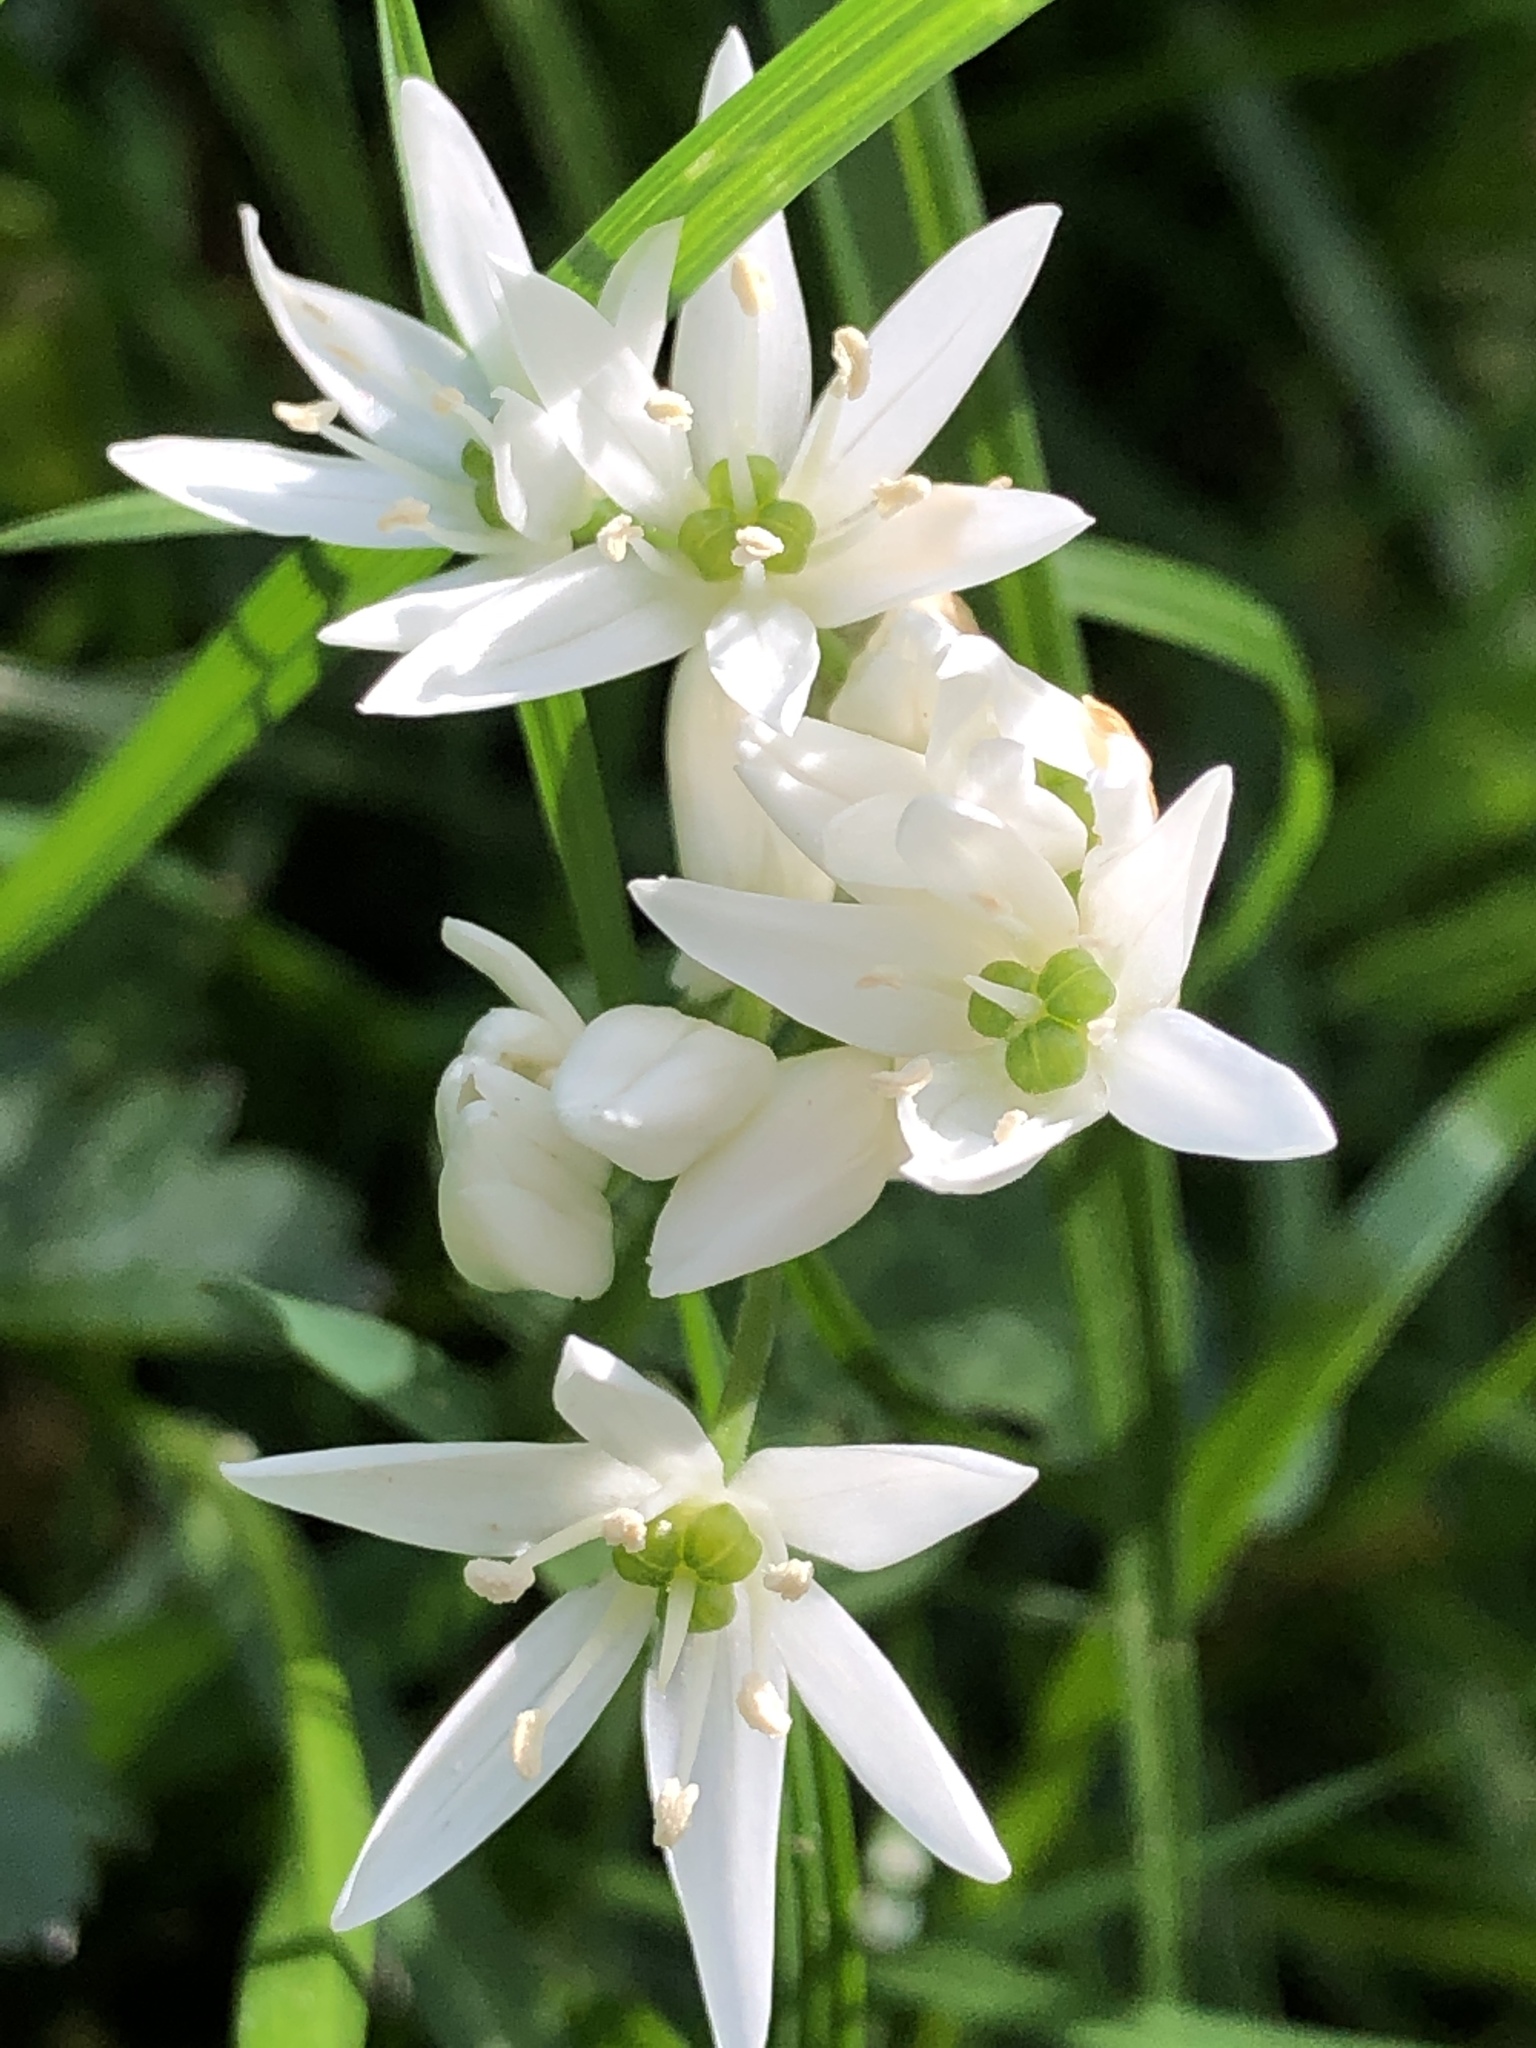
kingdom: Plantae
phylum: Tracheophyta
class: Liliopsida
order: Asparagales
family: Amaryllidaceae
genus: Allium
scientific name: Allium ursinum
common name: Ramsons
